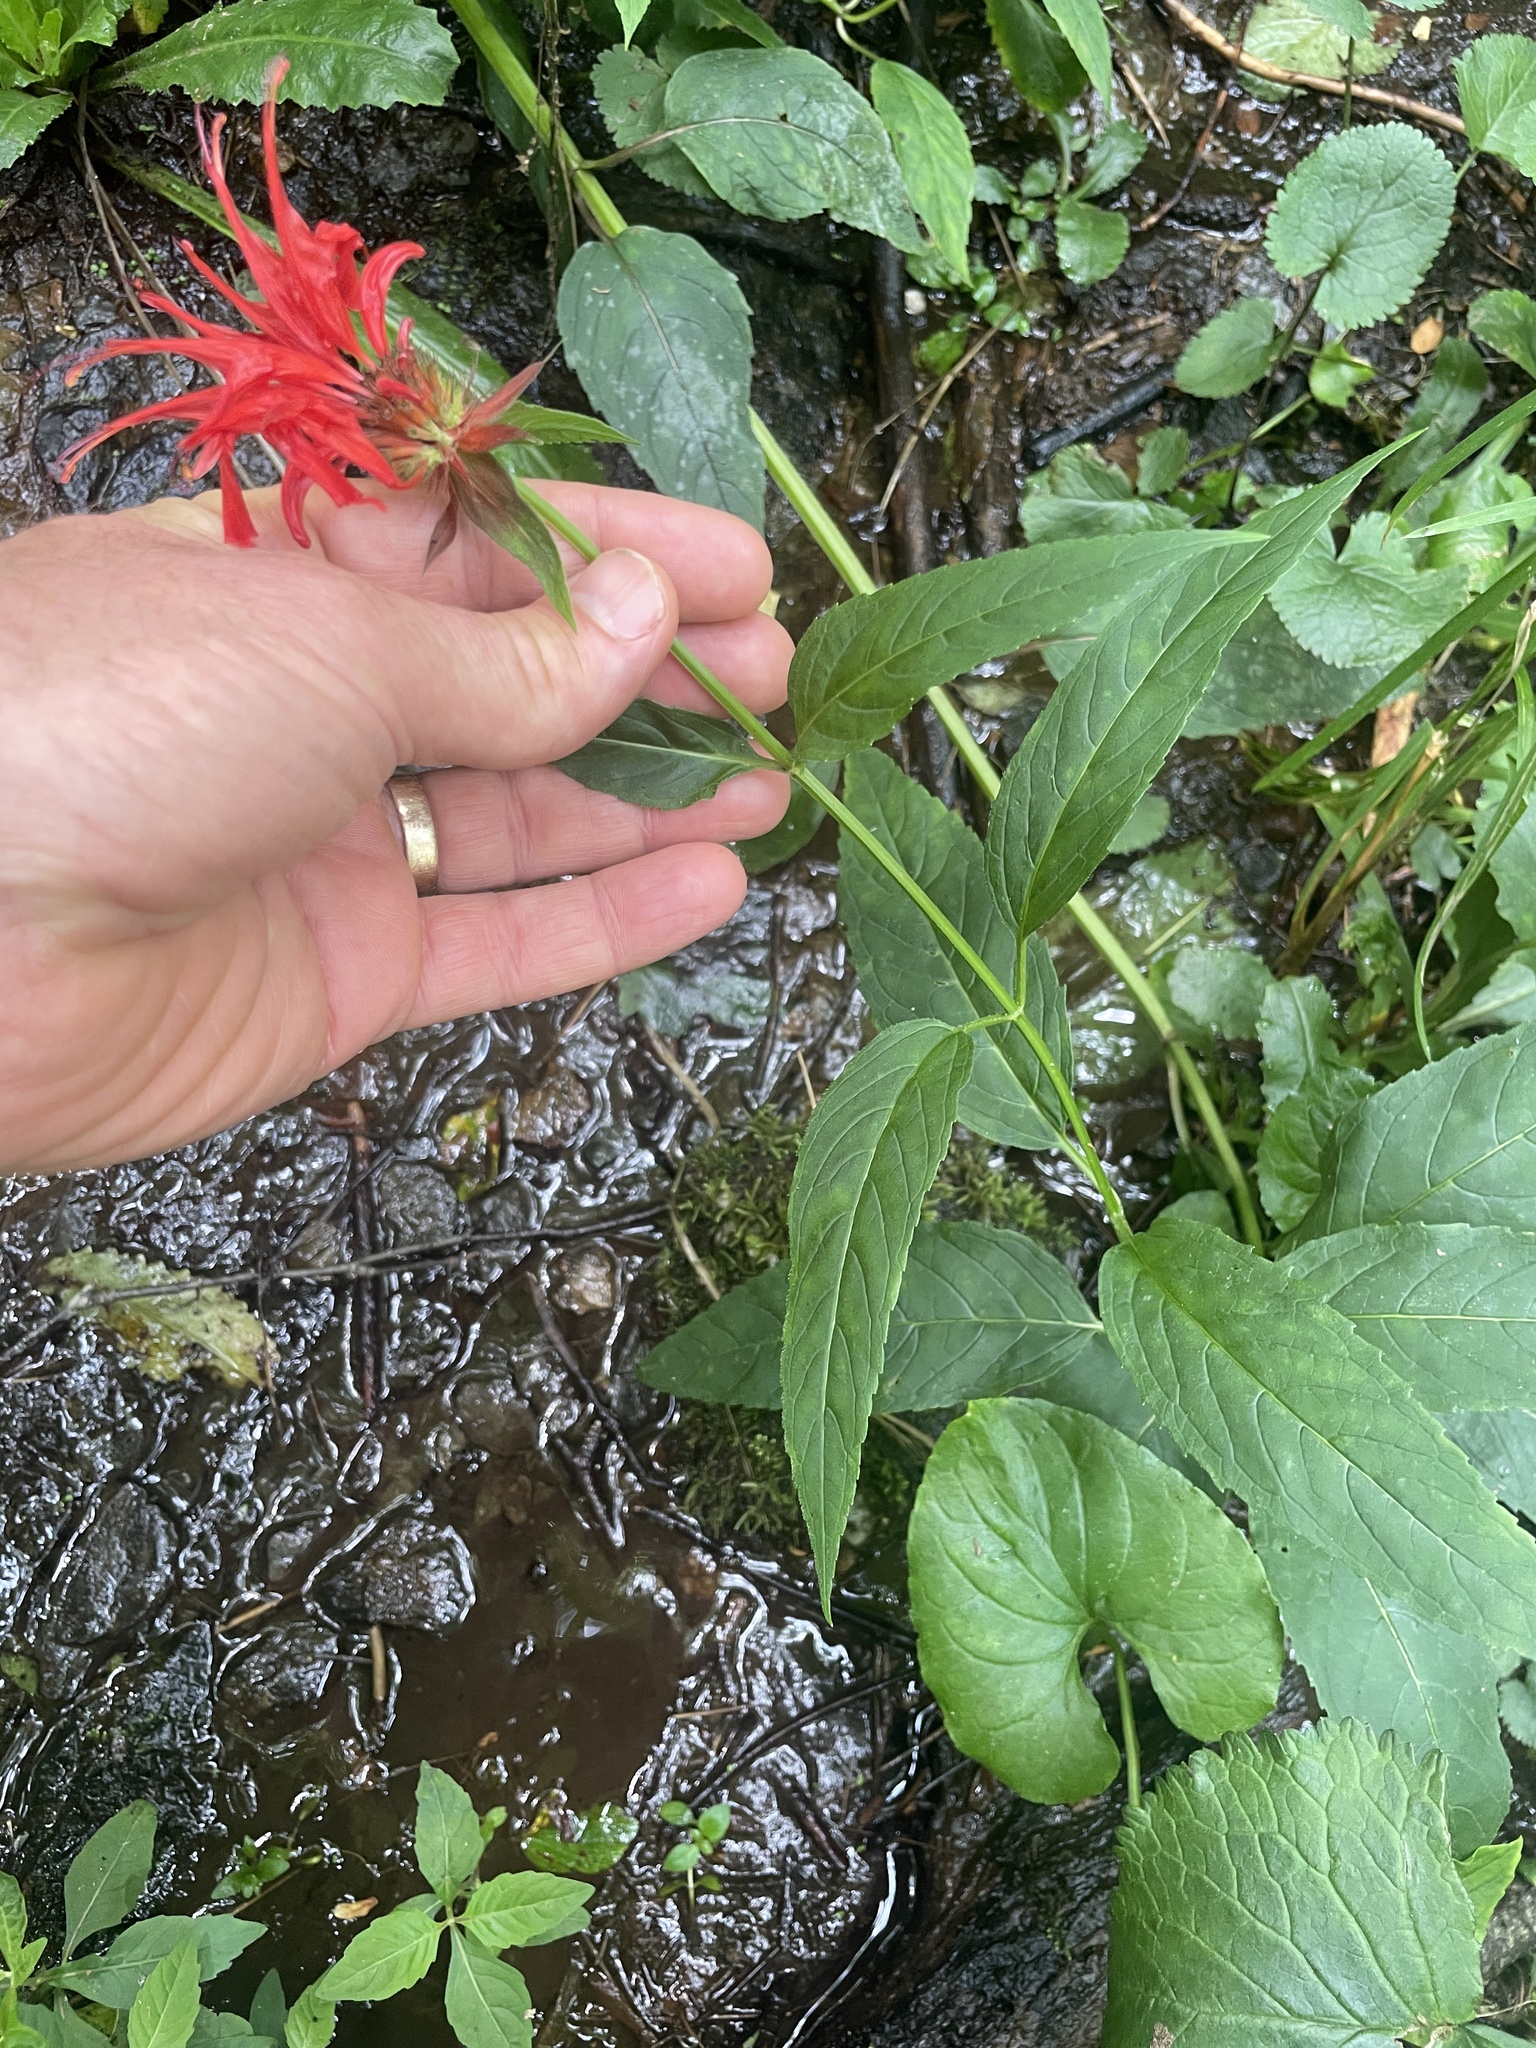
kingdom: Plantae
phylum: Tracheophyta
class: Magnoliopsida
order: Lamiales
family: Lamiaceae
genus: Monarda
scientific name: Monarda didyma
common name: Beebalm
